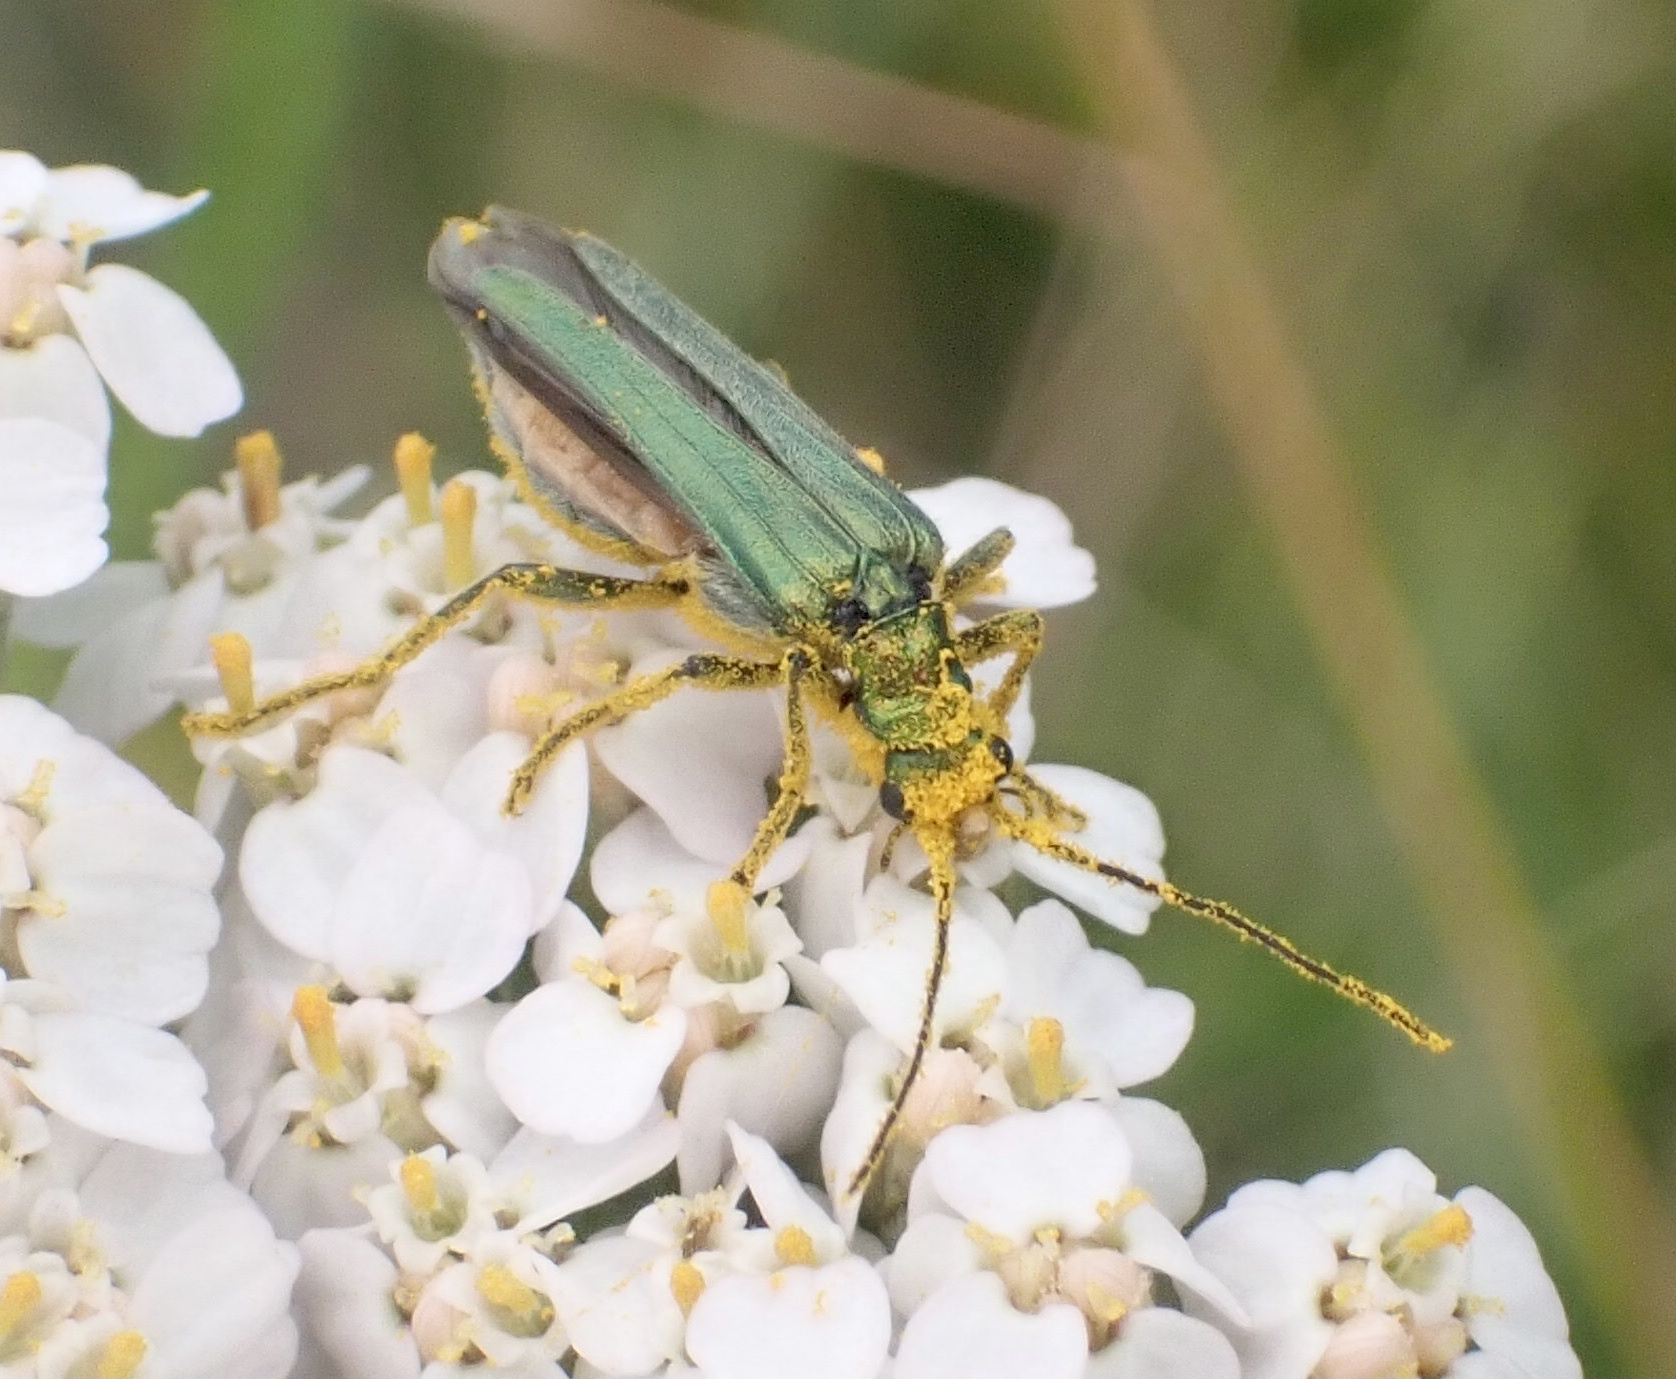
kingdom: Animalia
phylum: Arthropoda
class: Insecta
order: Coleoptera
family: Oedemeridae
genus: Oedemera
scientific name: Oedemera nobilis
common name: Swollen-thighed beetle
